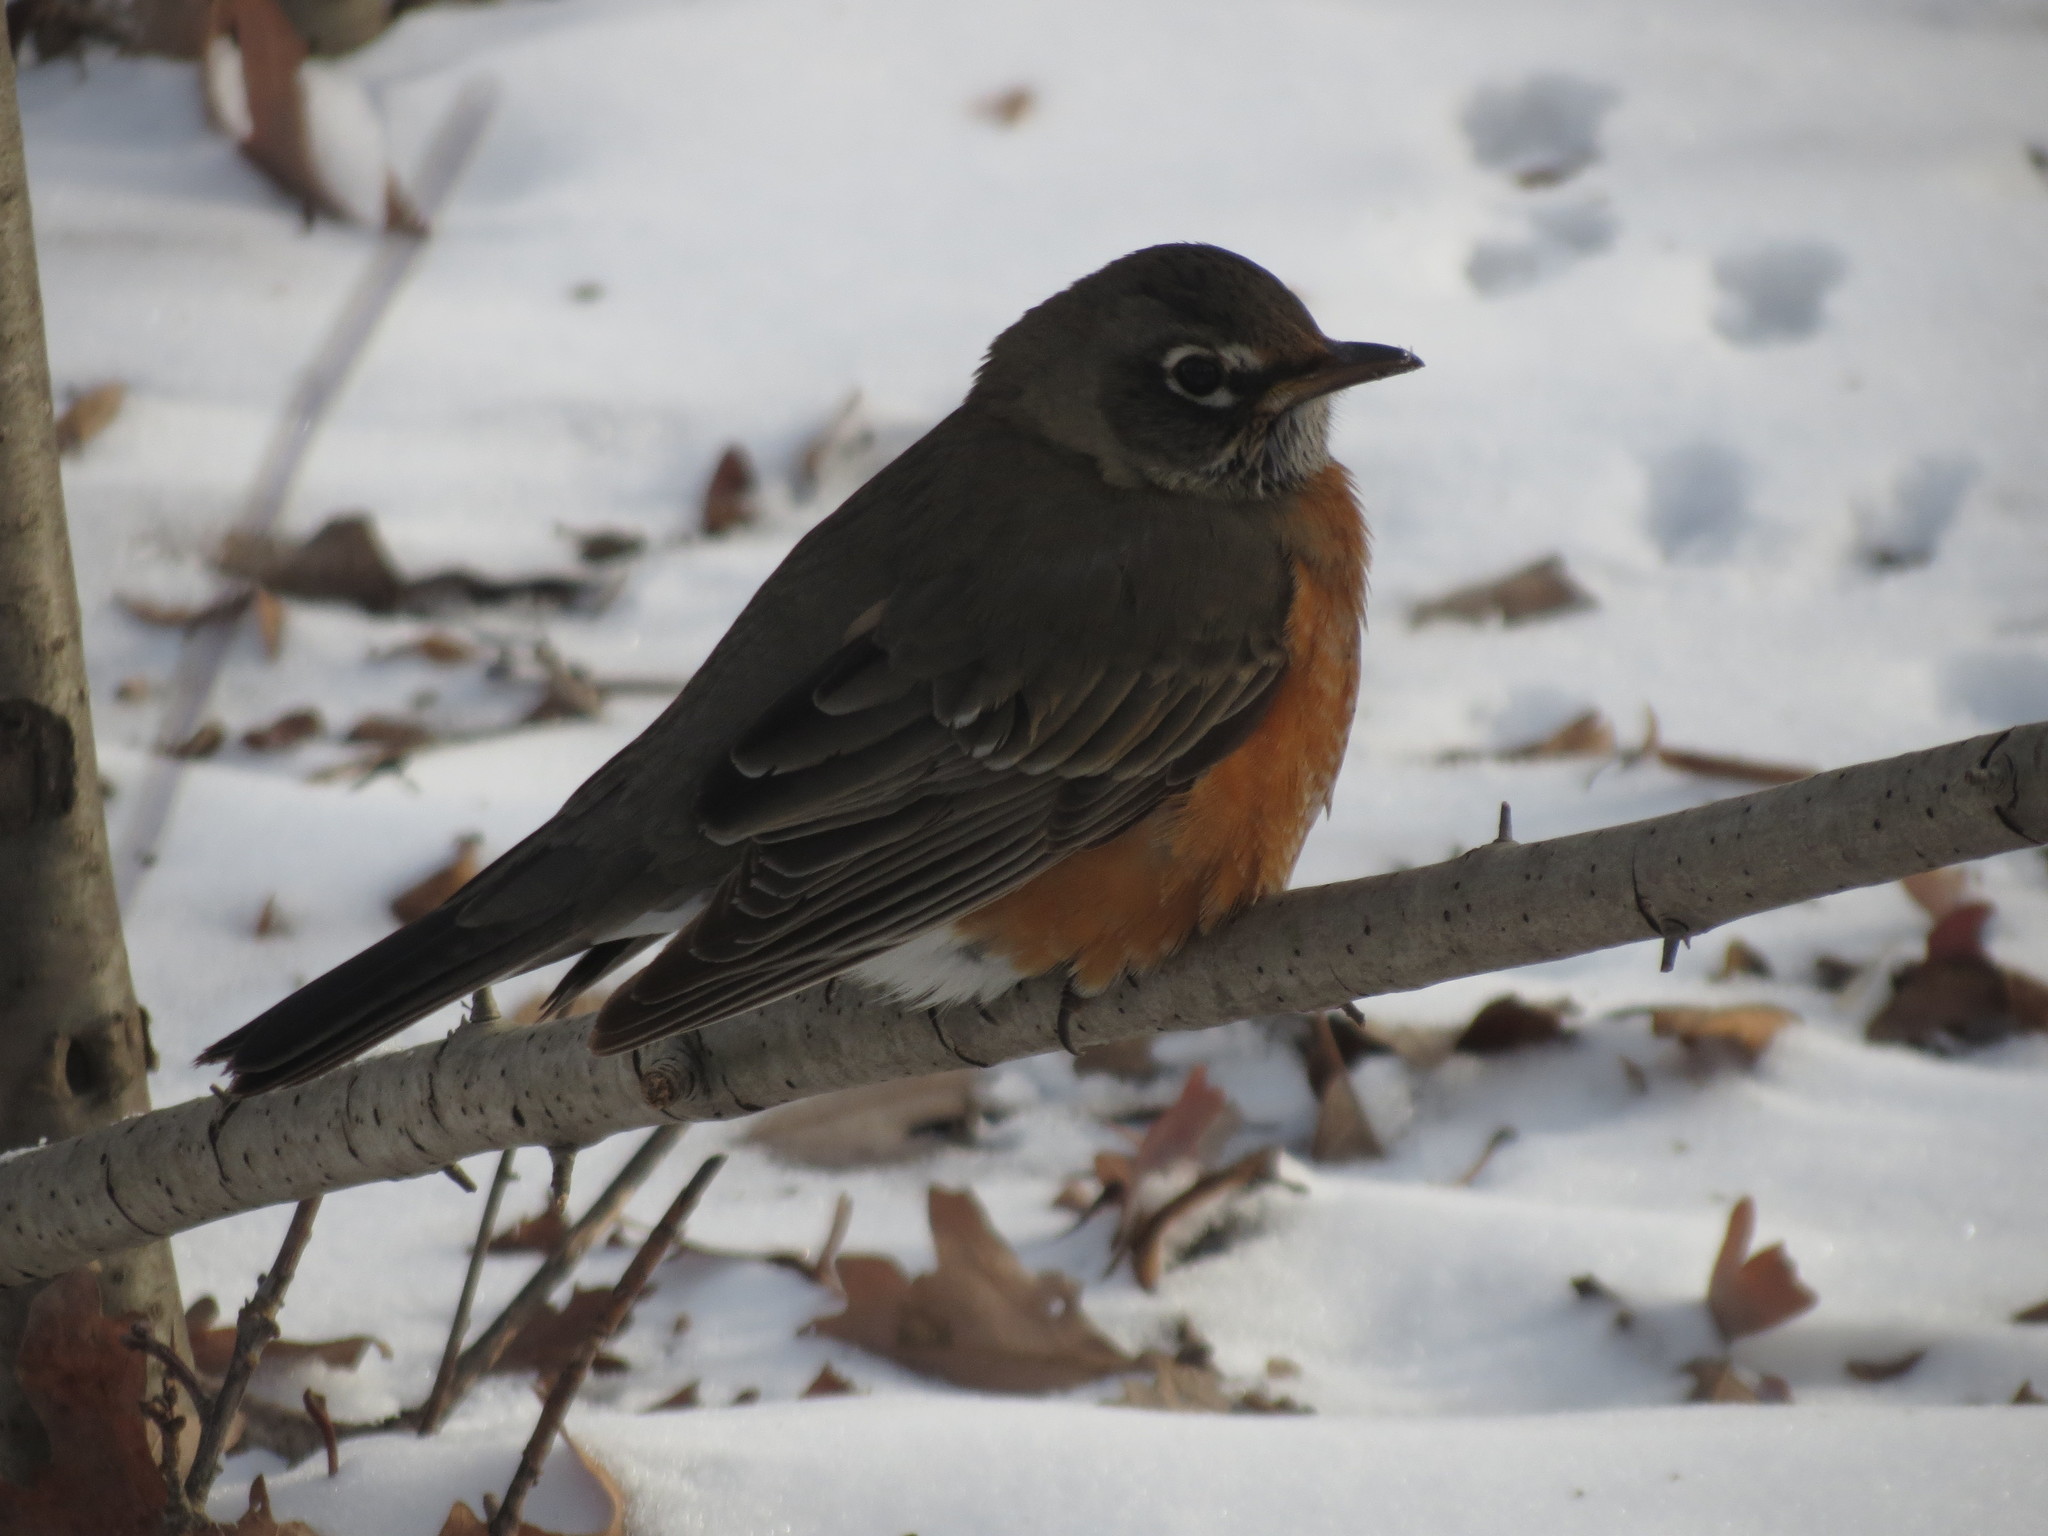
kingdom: Animalia
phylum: Chordata
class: Aves
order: Passeriformes
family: Turdidae
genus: Turdus
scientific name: Turdus migratorius
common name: American robin
